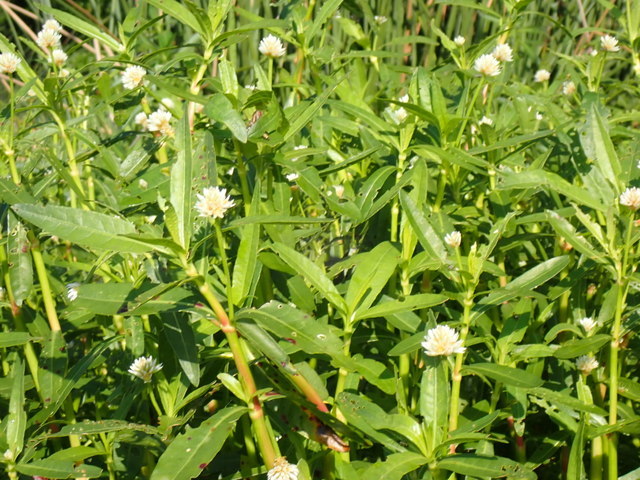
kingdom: Plantae
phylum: Tracheophyta
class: Magnoliopsida
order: Caryophyllales
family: Amaranthaceae
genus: Alternanthera
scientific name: Alternanthera philoxeroides
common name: Alligatorweed
